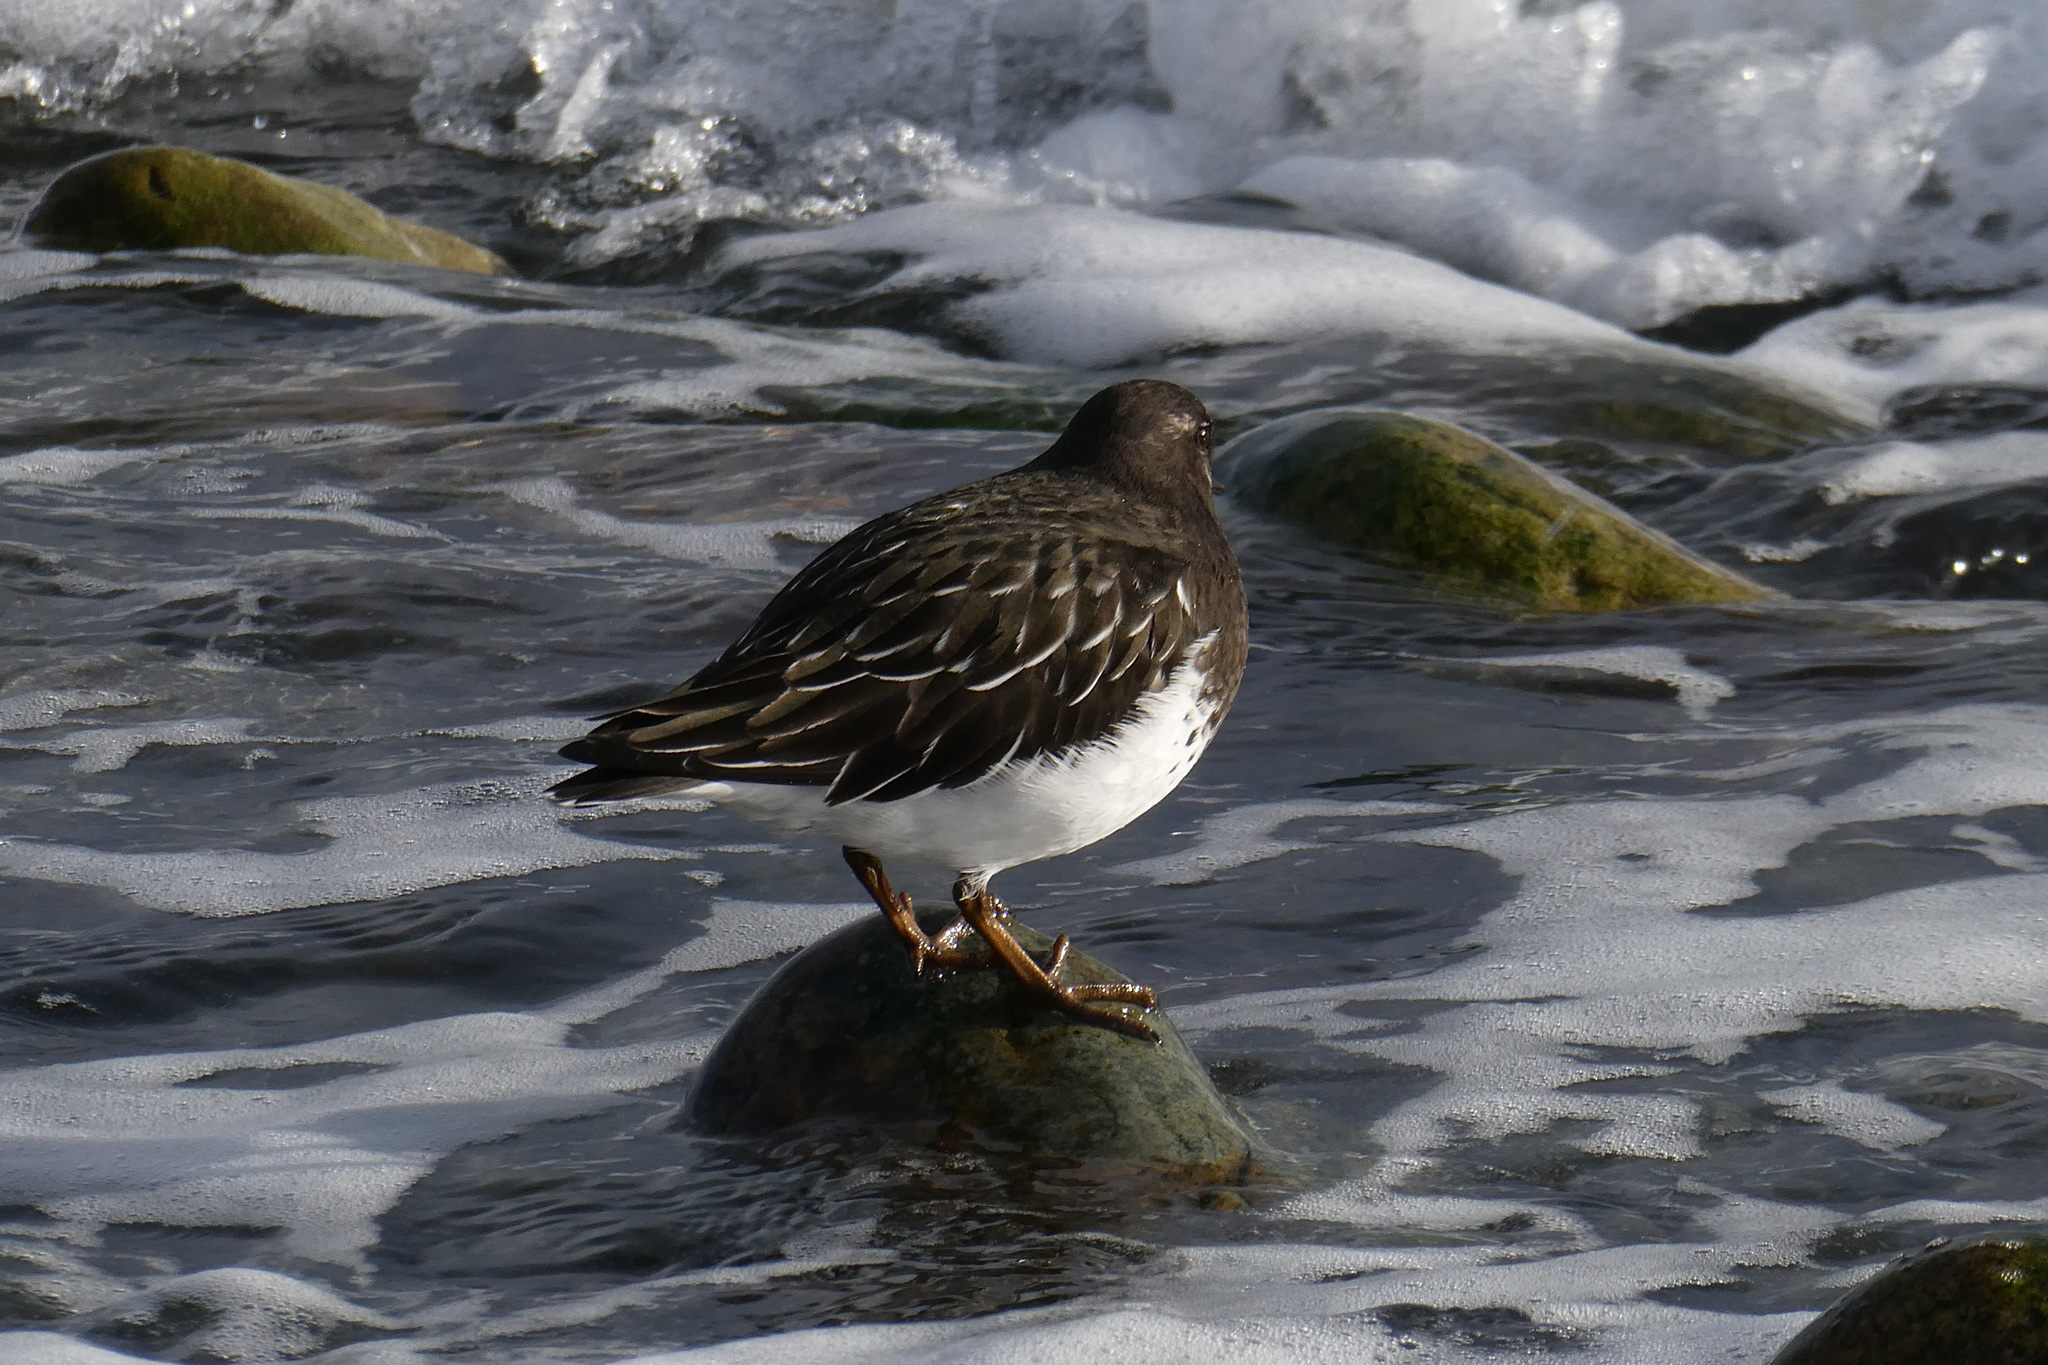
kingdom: Animalia
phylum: Chordata
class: Aves
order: Charadriiformes
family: Scolopacidae
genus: Arenaria
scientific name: Arenaria melanocephala
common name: Black turnstone
